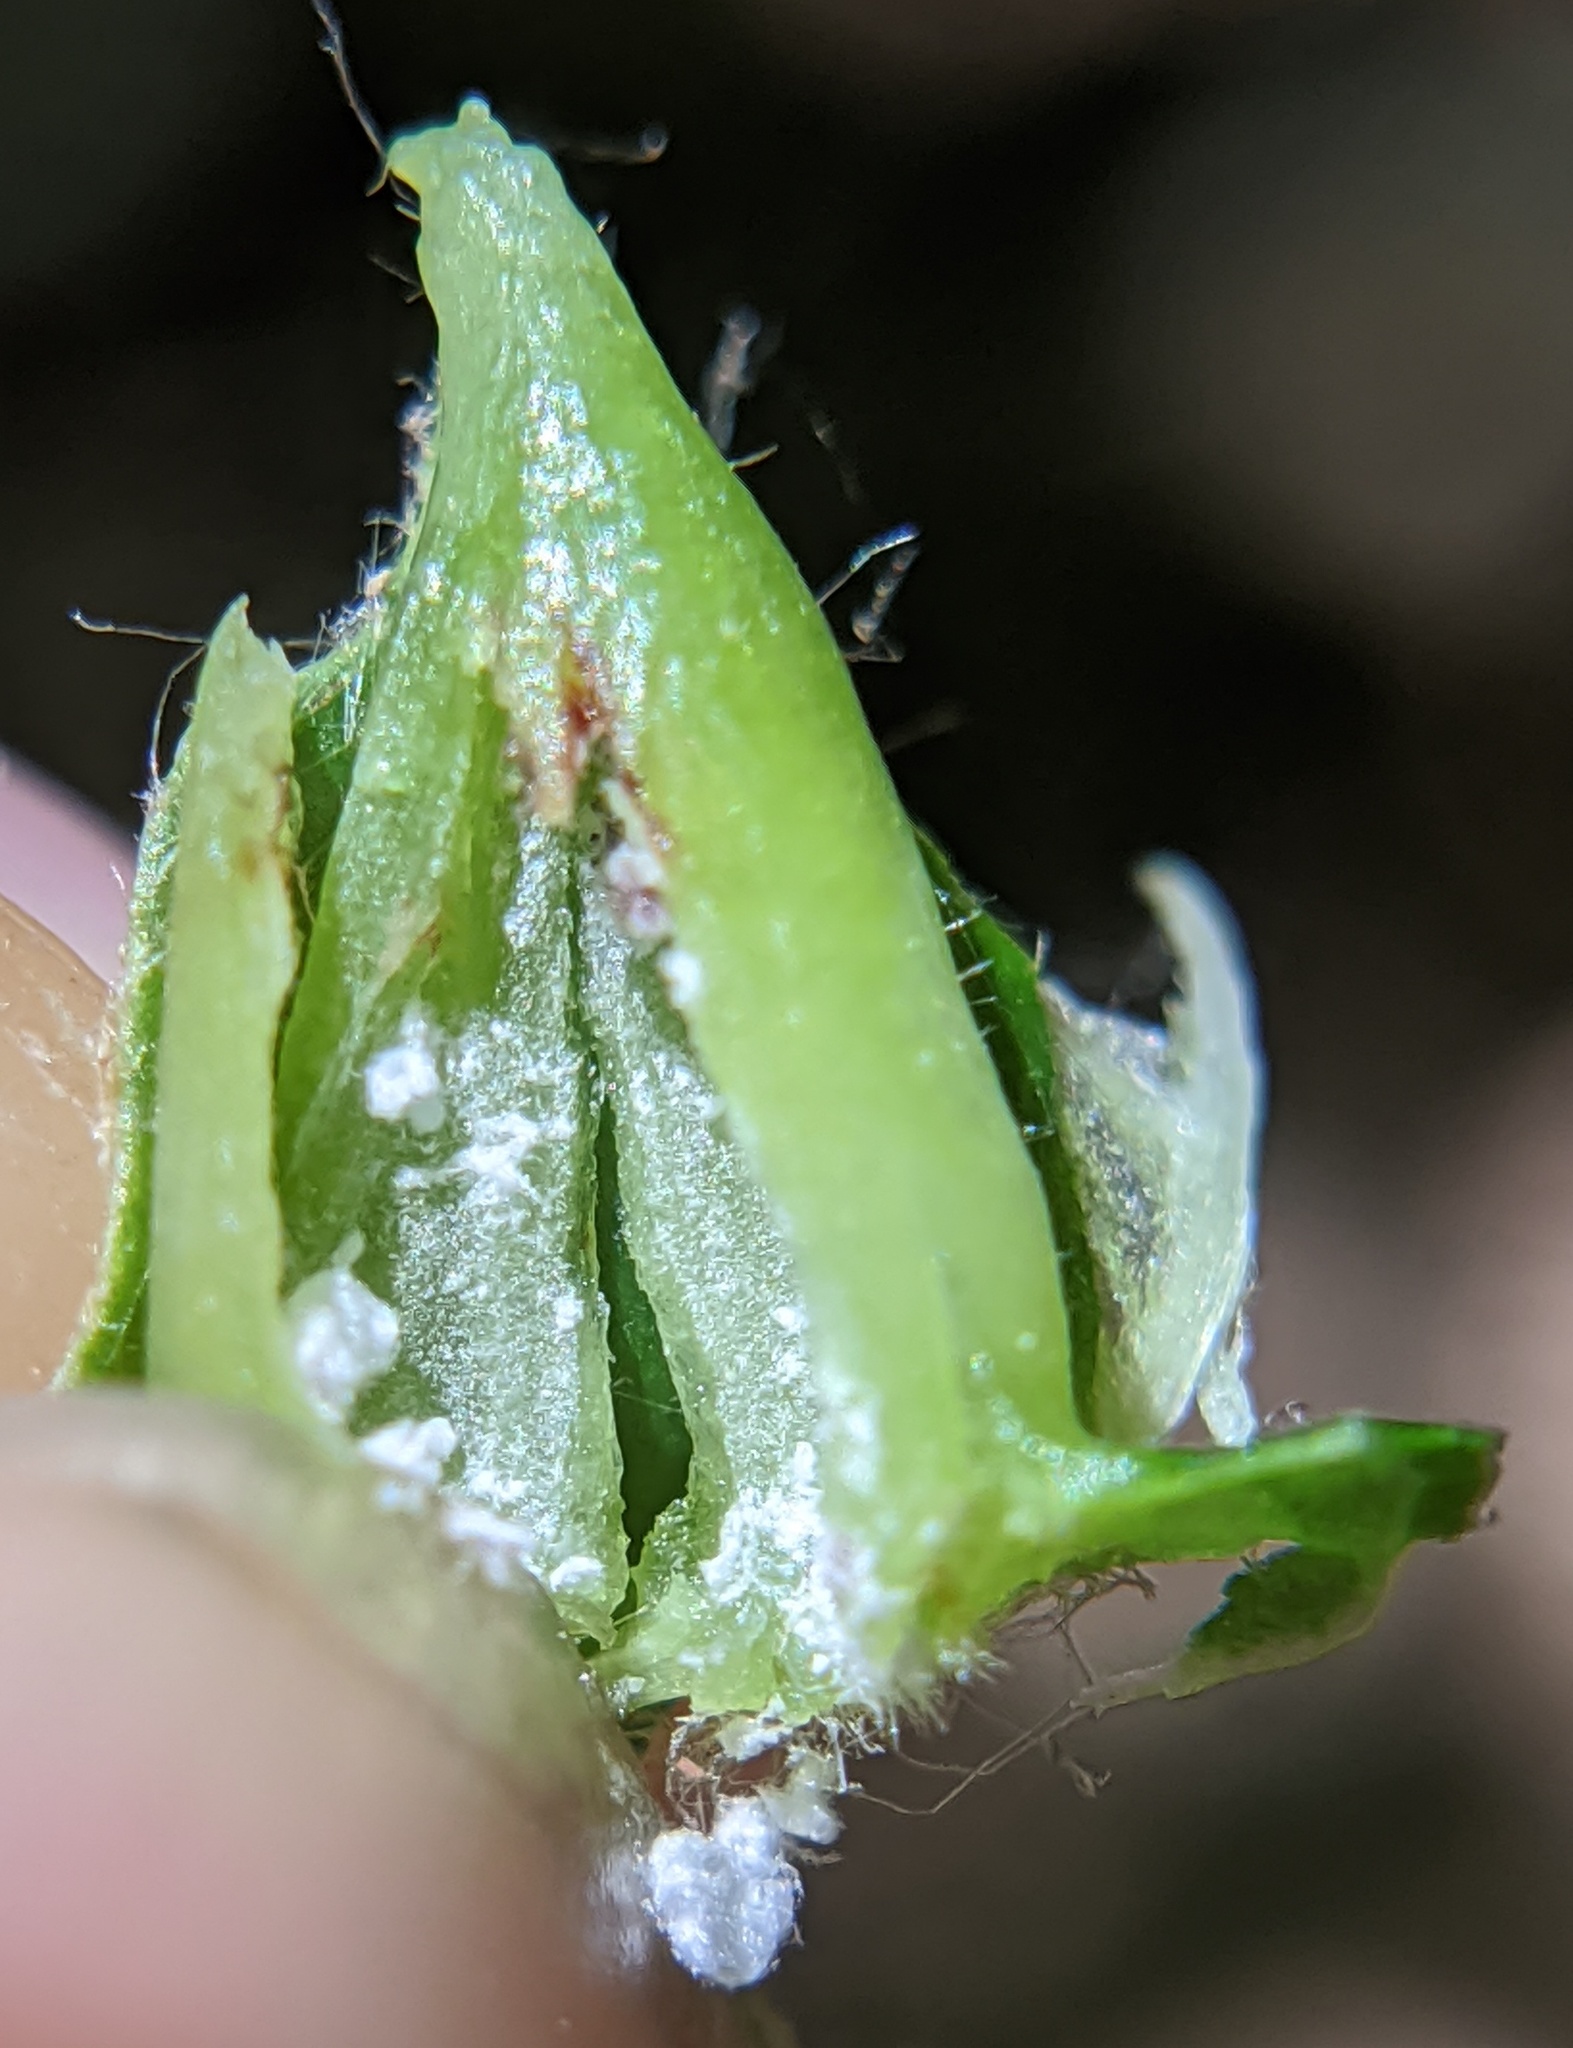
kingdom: Animalia
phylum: Arthropoda
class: Insecta
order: Hemiptera
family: Aphididae
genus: Hormaphis
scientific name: Hormaphis hamamelidis
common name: Witch-hazel cone gall aphid
